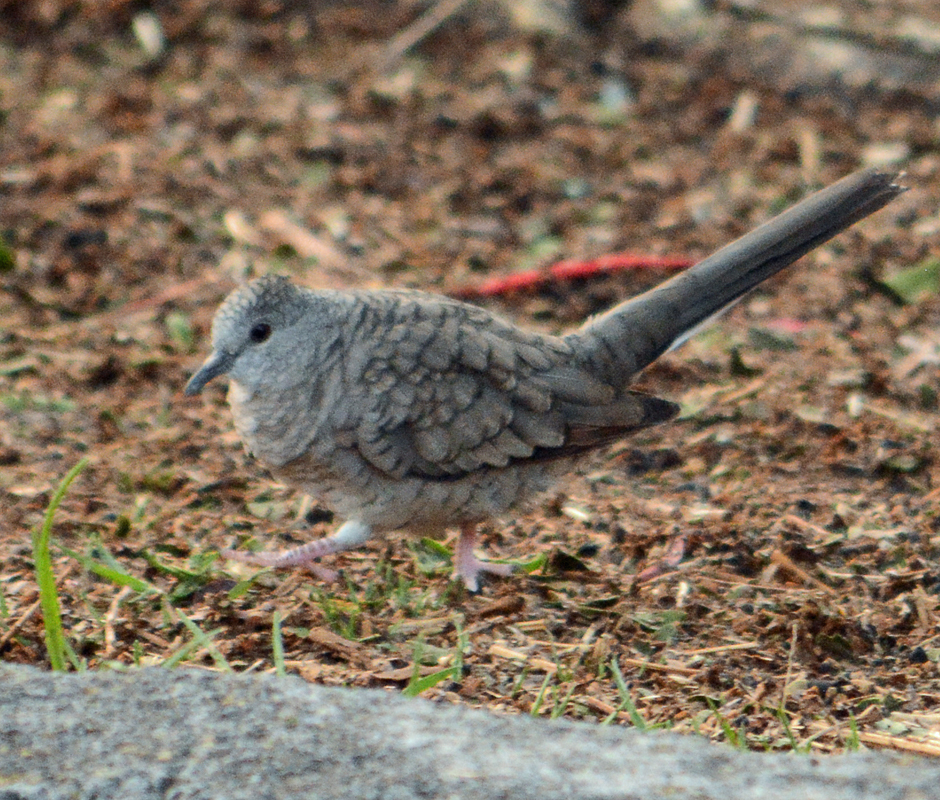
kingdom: Animalia
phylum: Chordata
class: Aves
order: Columbiformes
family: Columbidae
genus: Columbina
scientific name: Columbina inca
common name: Inca dove
